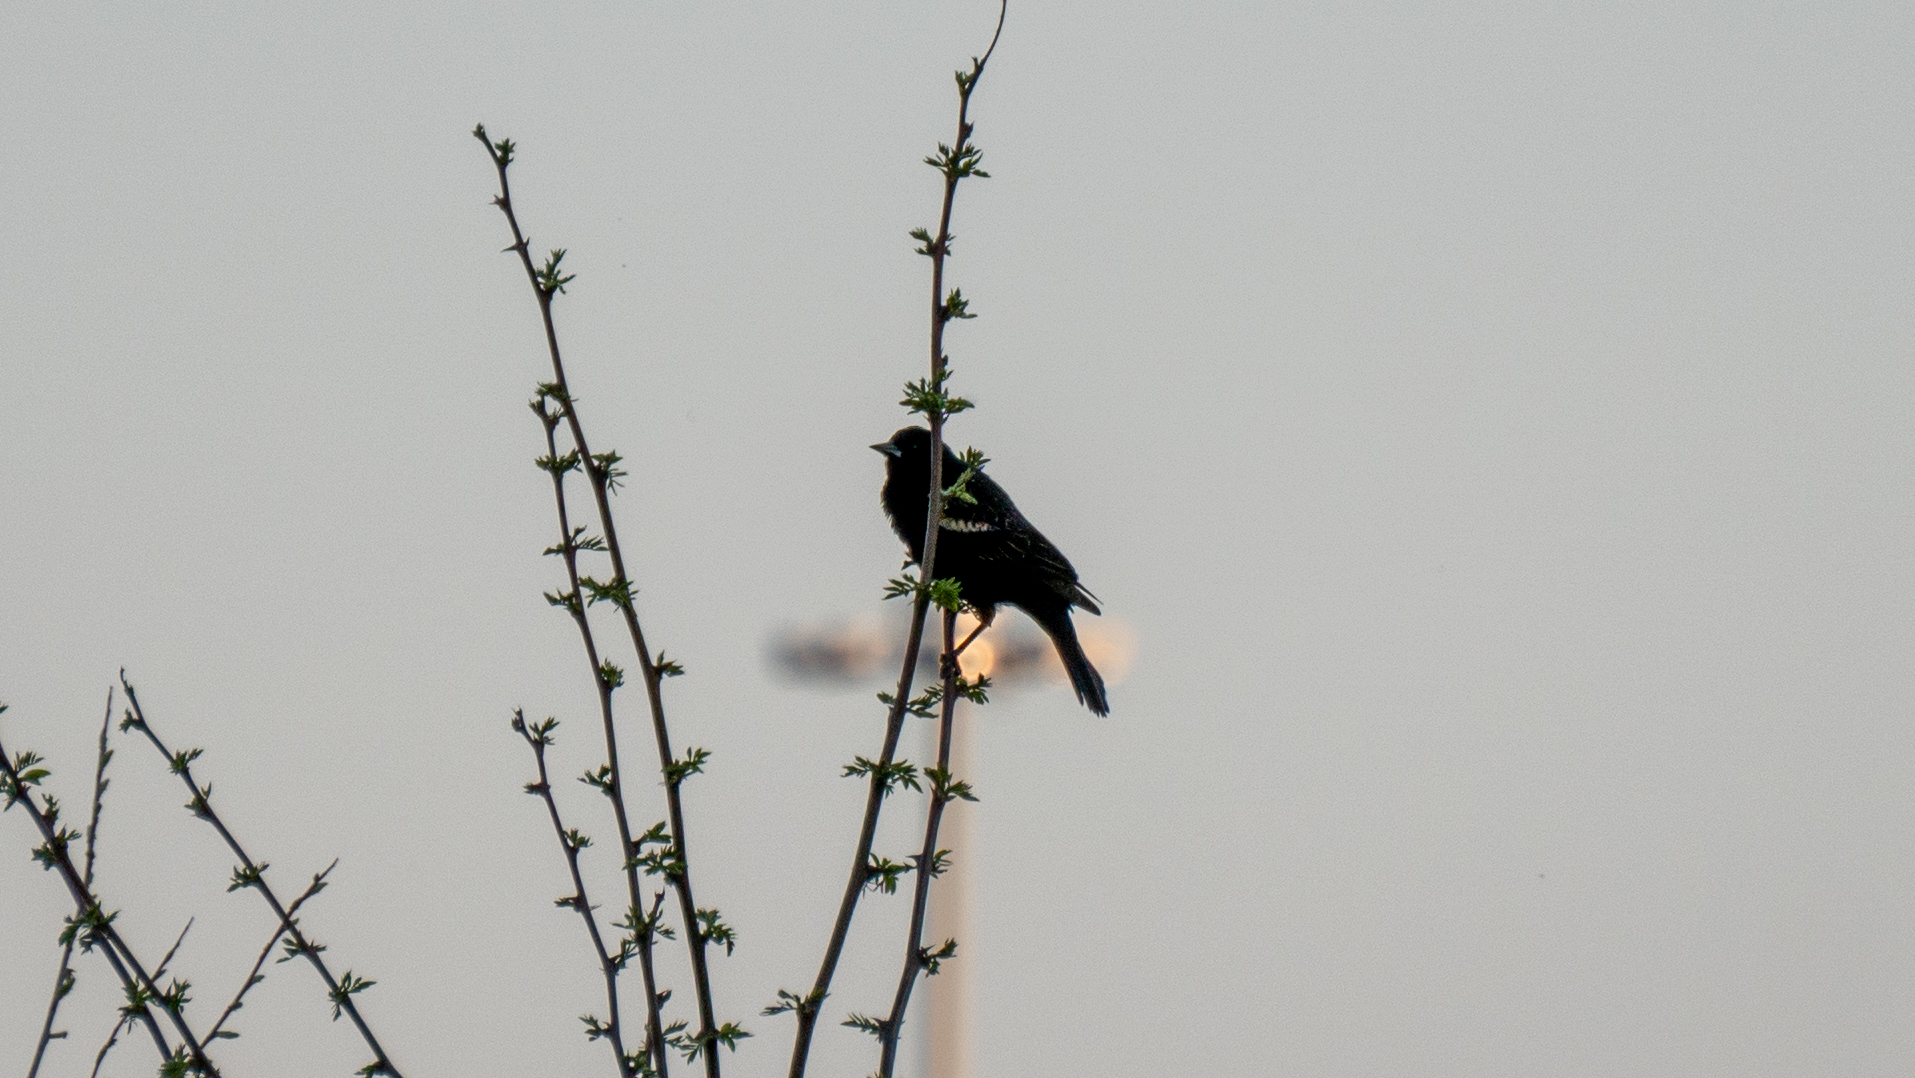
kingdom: Animalia
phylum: Chordata
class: Aves
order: Passeriformes
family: Icteridae
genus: Agelaius
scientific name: Agelaius phoeniceus
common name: Red-winged blackbird
